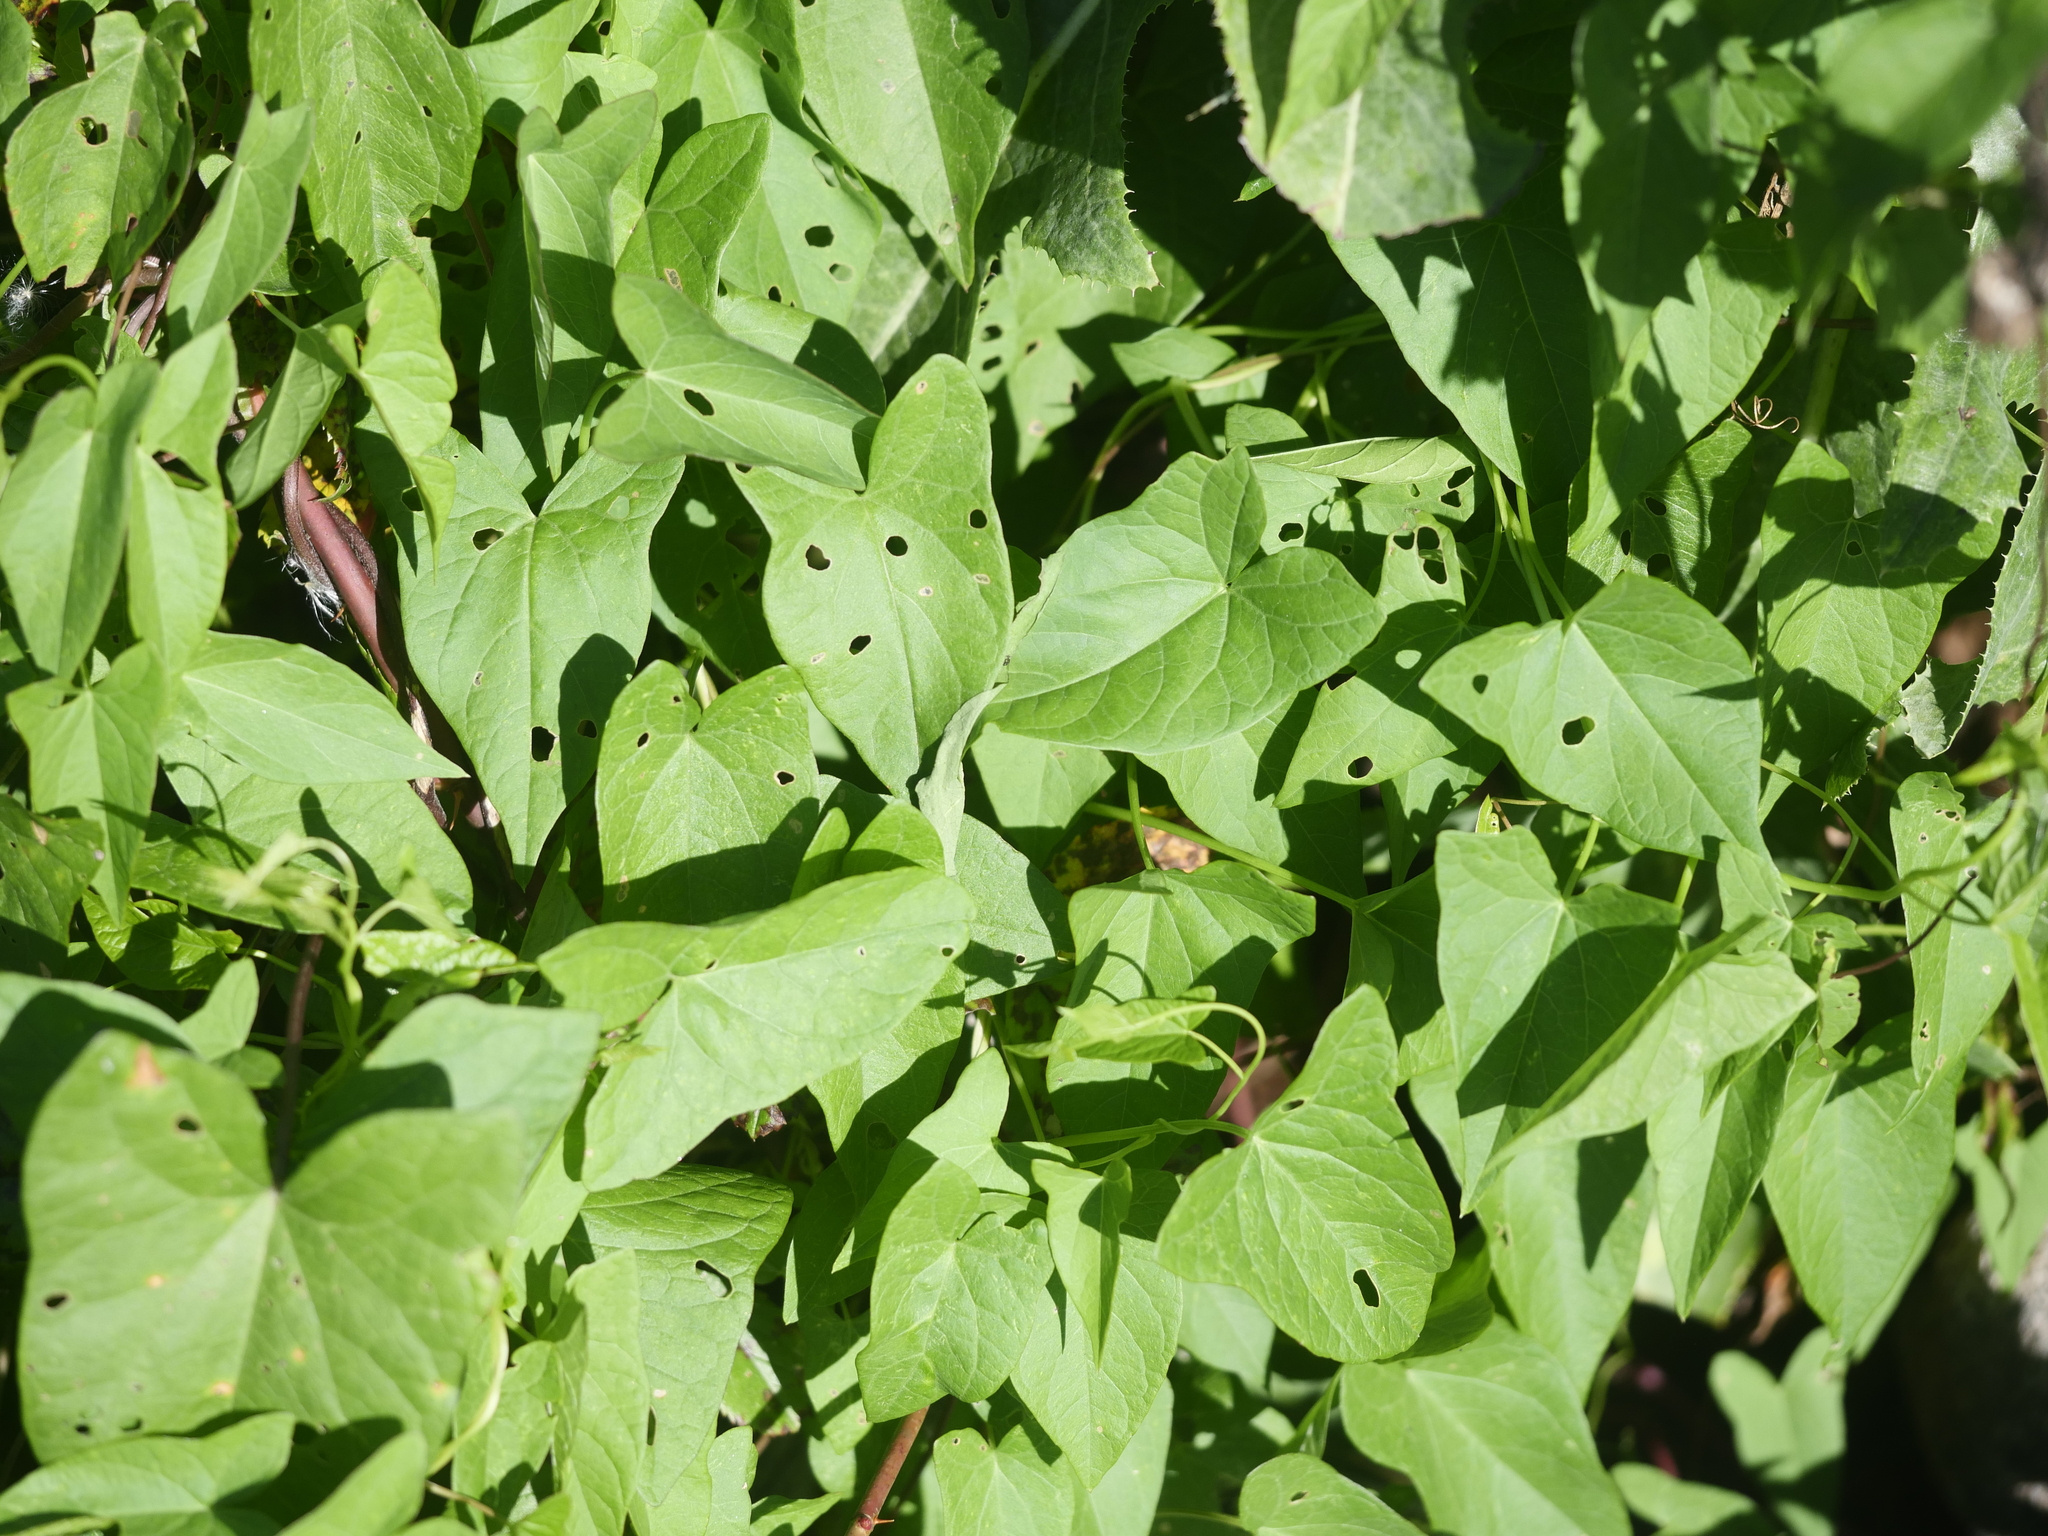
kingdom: Plantae
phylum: Tracheophyta
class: Magnoliopsida
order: Solanales
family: Convolvulaceae
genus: Calystegia
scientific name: Calystegia sepium
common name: Hedge bindweed
